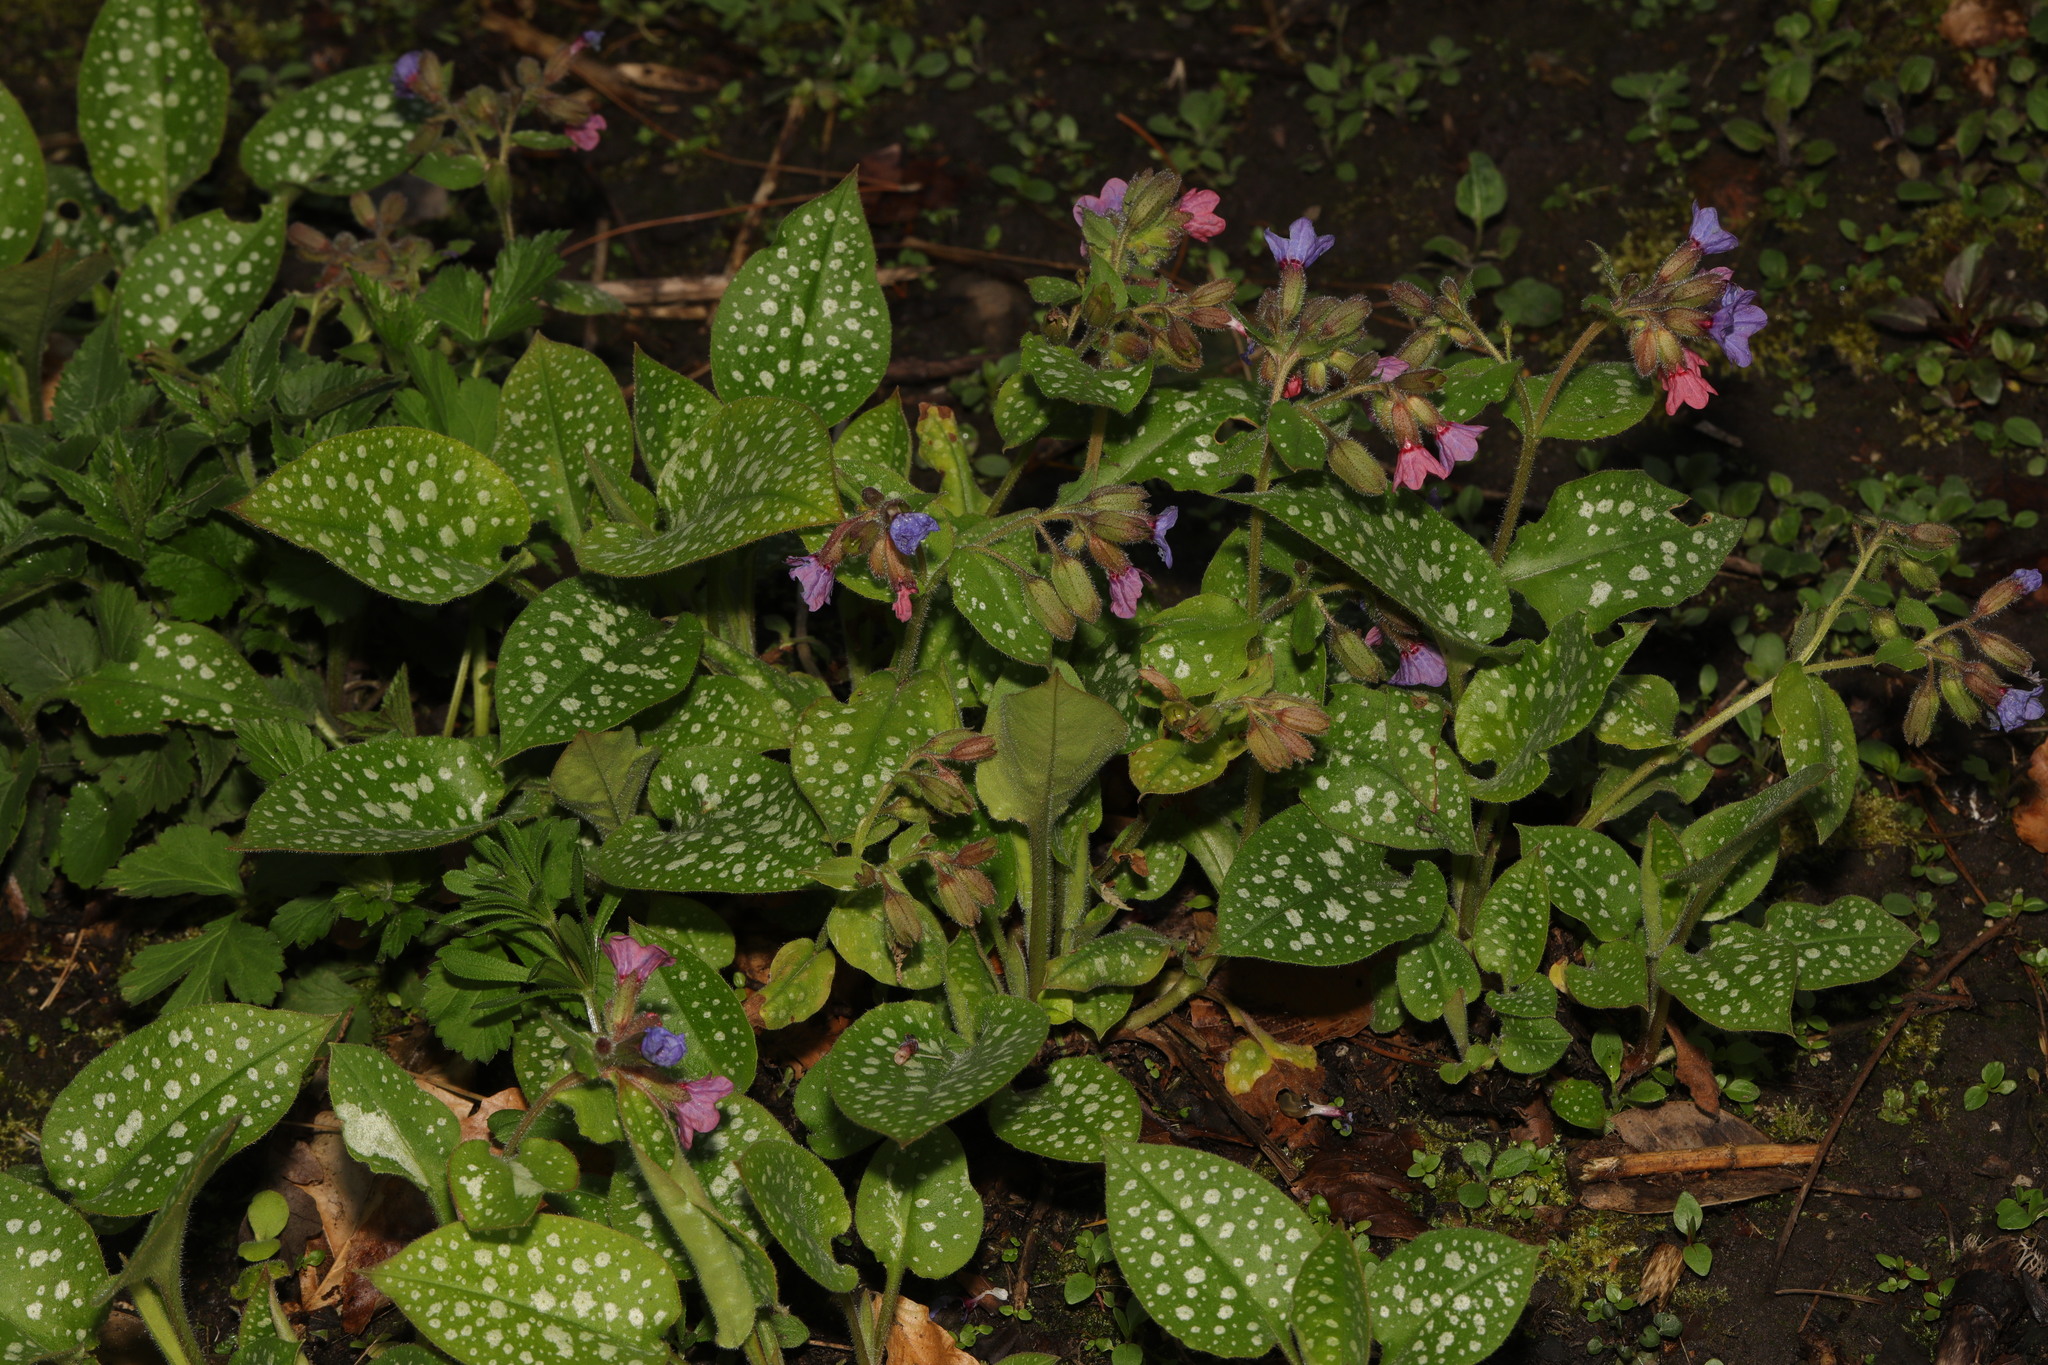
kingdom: Plantae
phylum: Tracheophyta
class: Magnoliopsida
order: Boraginales
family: Boraginaceae
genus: Pulmonaria
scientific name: Pulmonaria officinalis
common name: Lungwort
